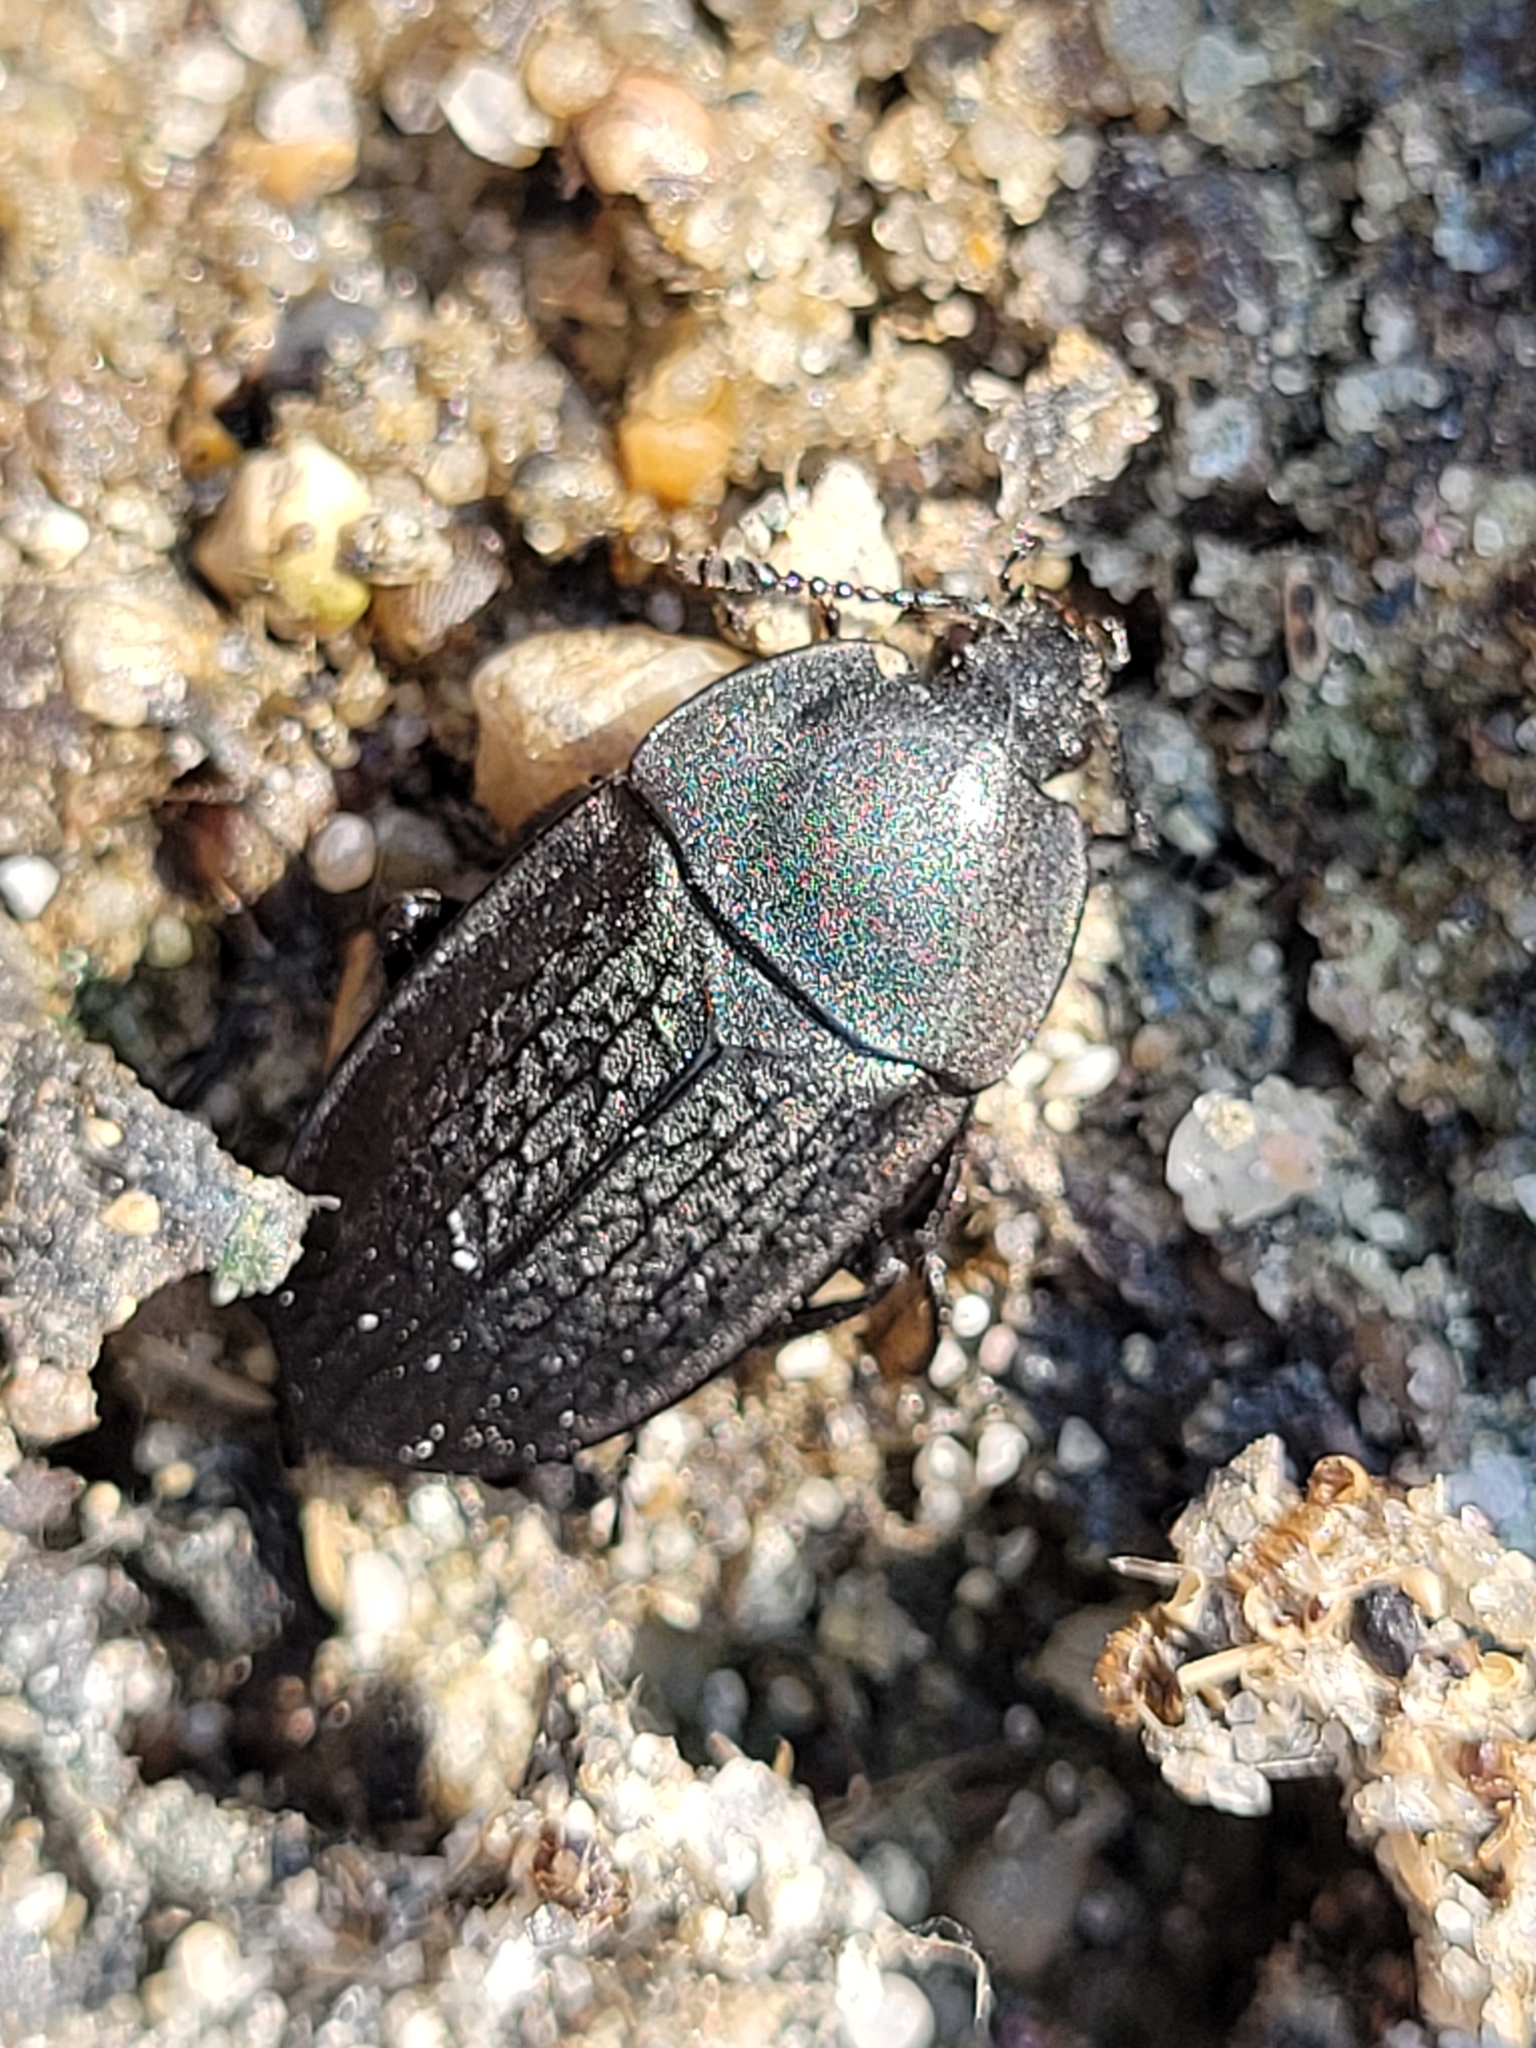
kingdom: Animalia
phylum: Arthropoda
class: Insecta
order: Coleoptera
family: Staphylinidae
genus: Heterosilpha
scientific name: Heterosilpha ramosa
